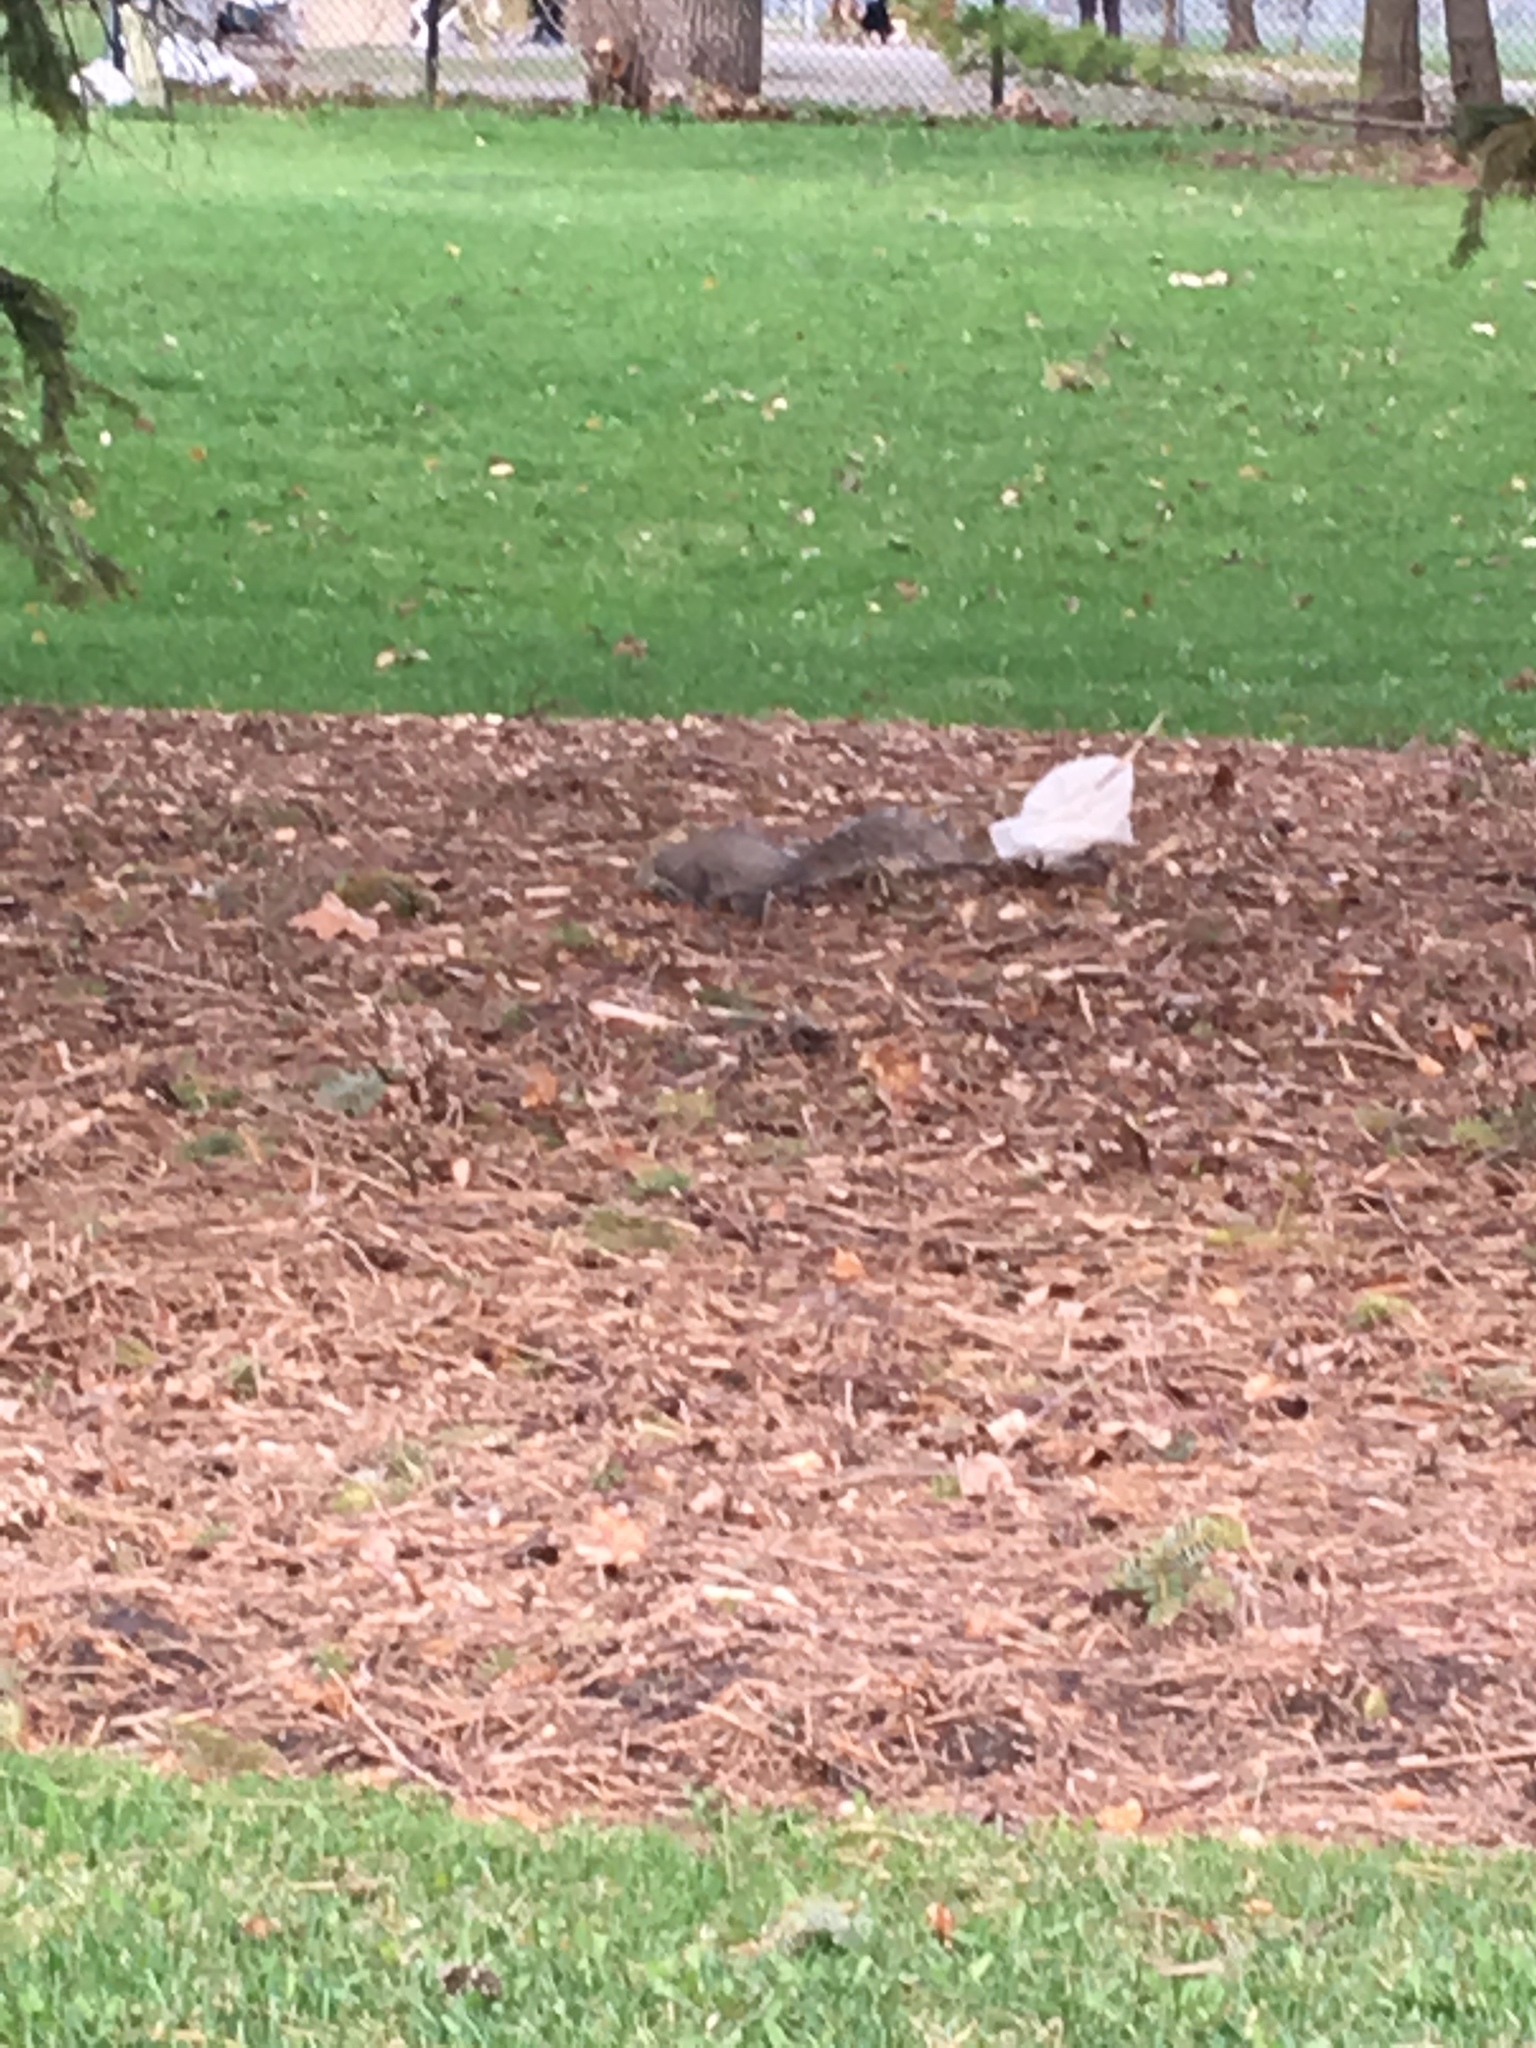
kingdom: Animalia
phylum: Chordata
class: Mammalia
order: Rodentia
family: Sciuridae
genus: Sciurus
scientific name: Sciurus carolinensis
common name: Eastern gray squirrel
